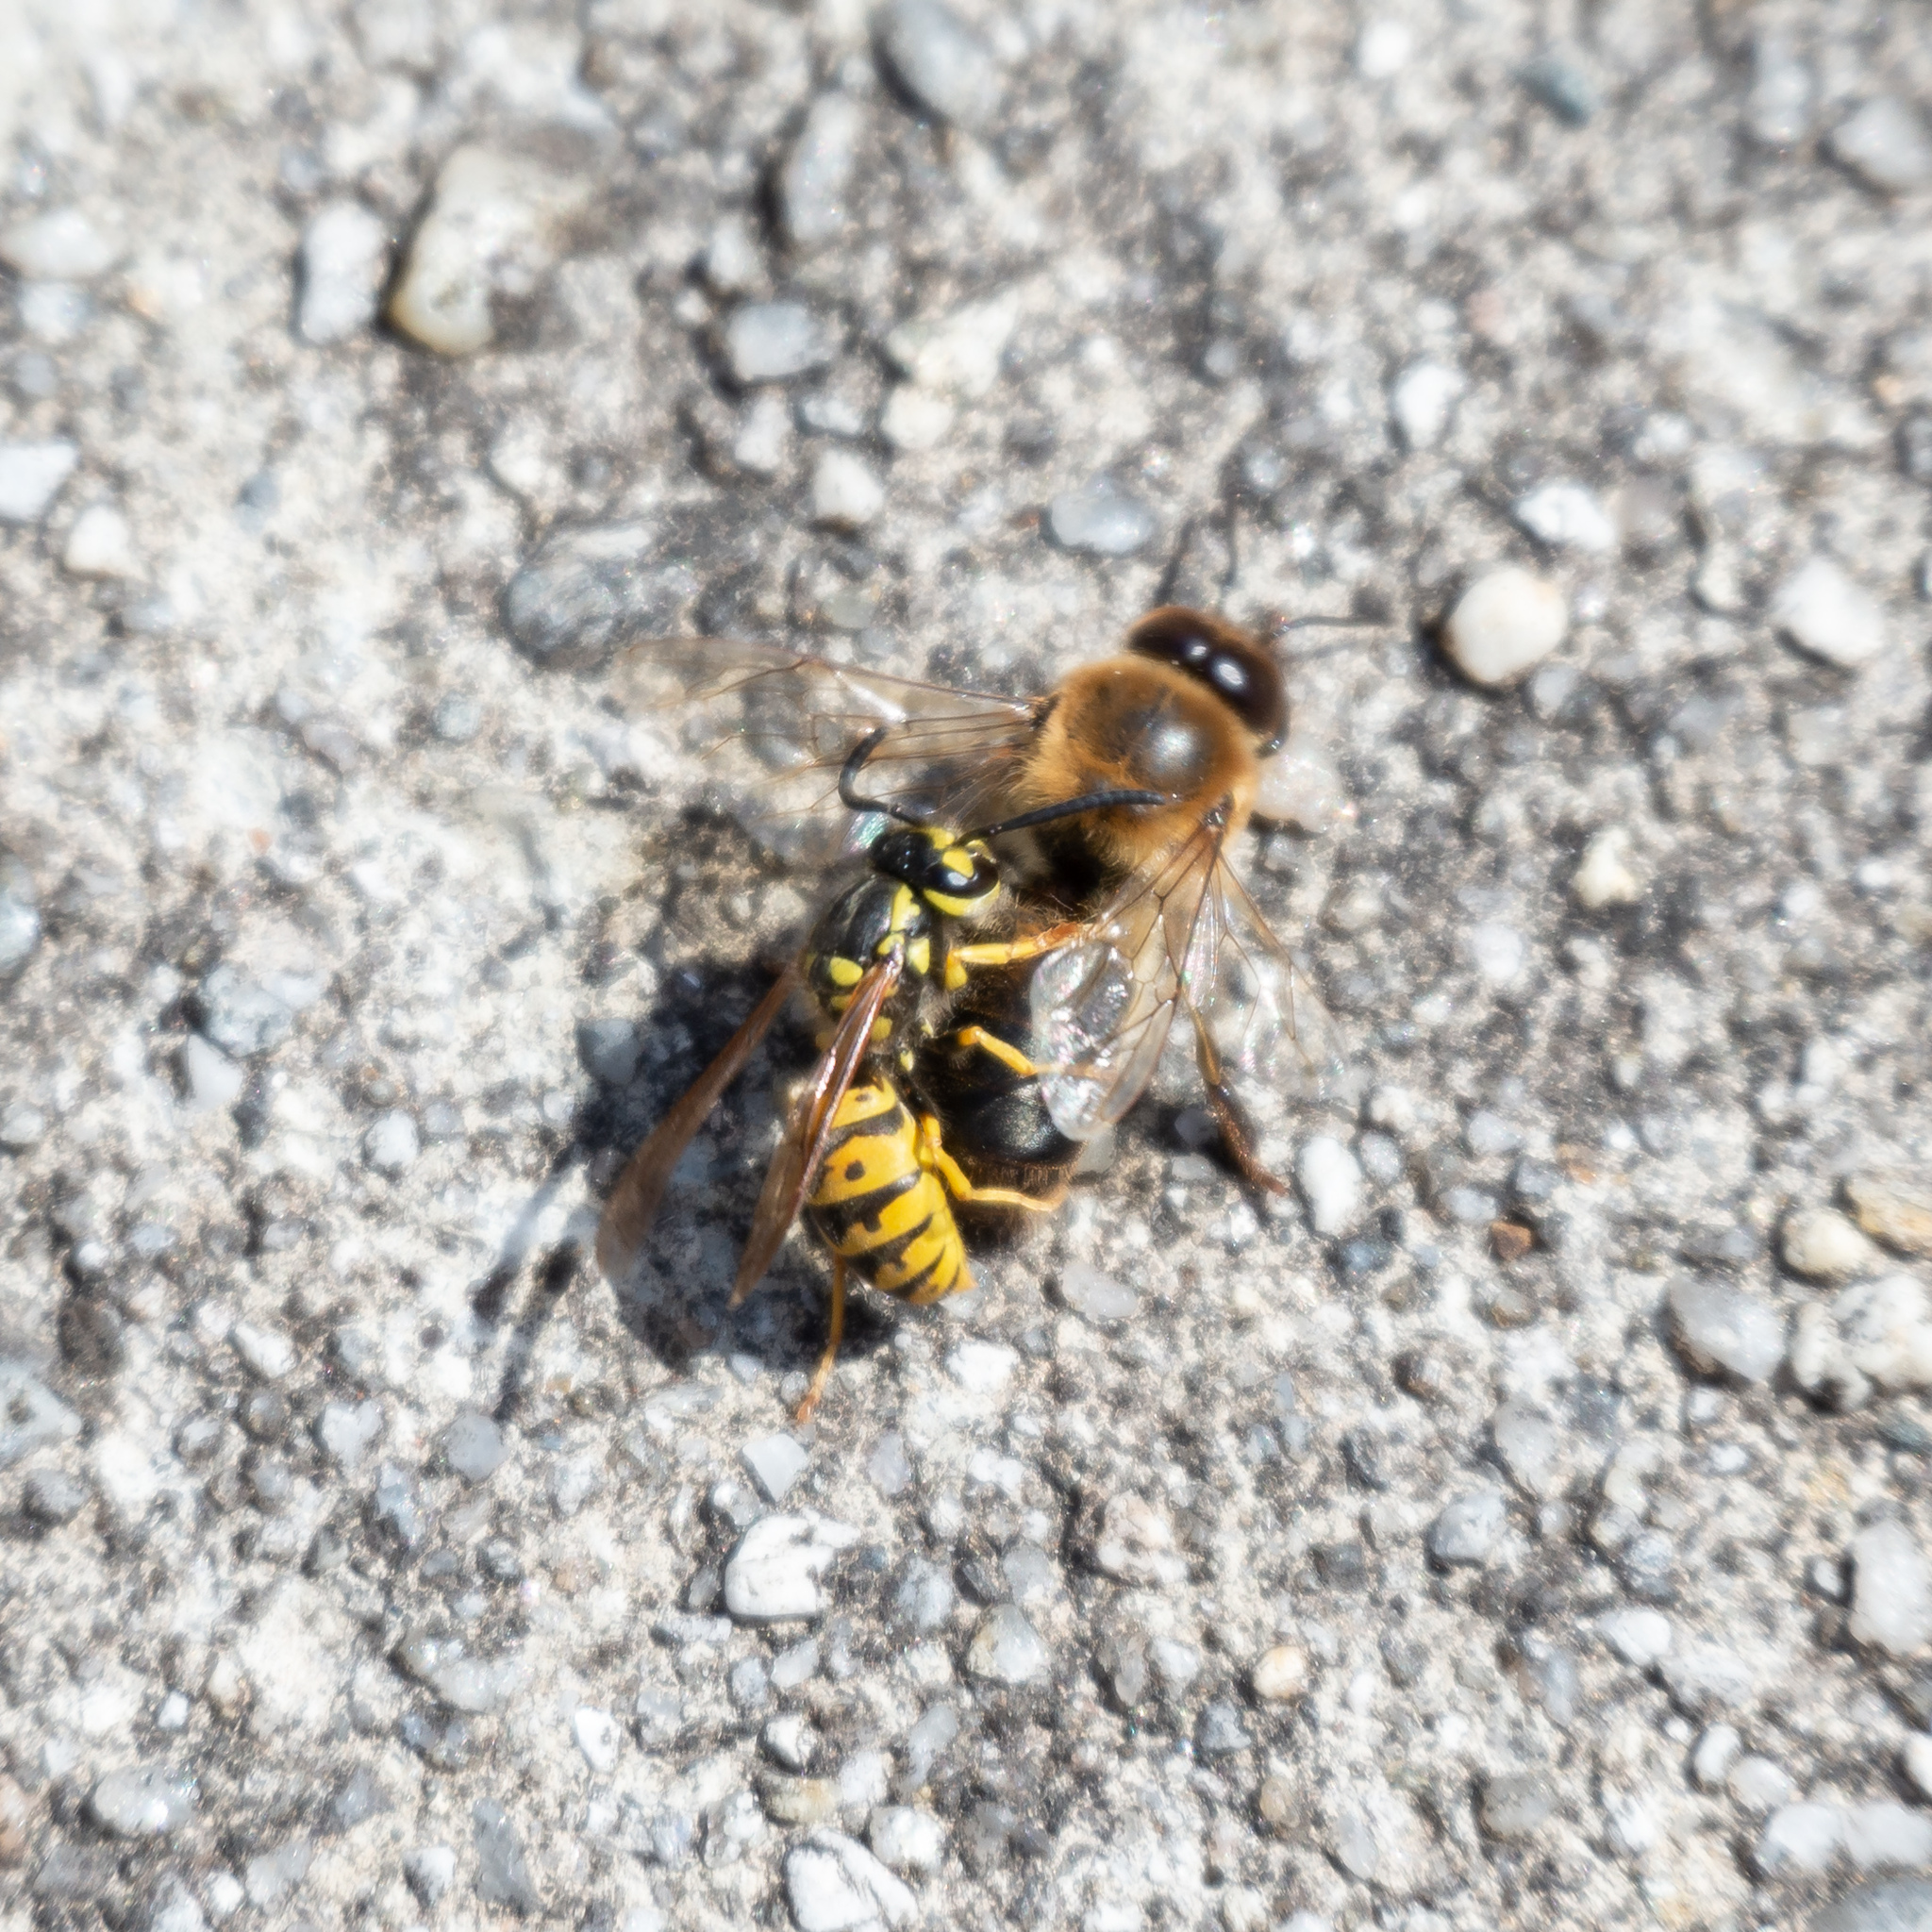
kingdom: Animalia
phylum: Arthropoda
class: Insecta
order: Hymenoptera
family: Vespidae
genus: Vespula
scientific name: Vespula germanica
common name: German wasp
